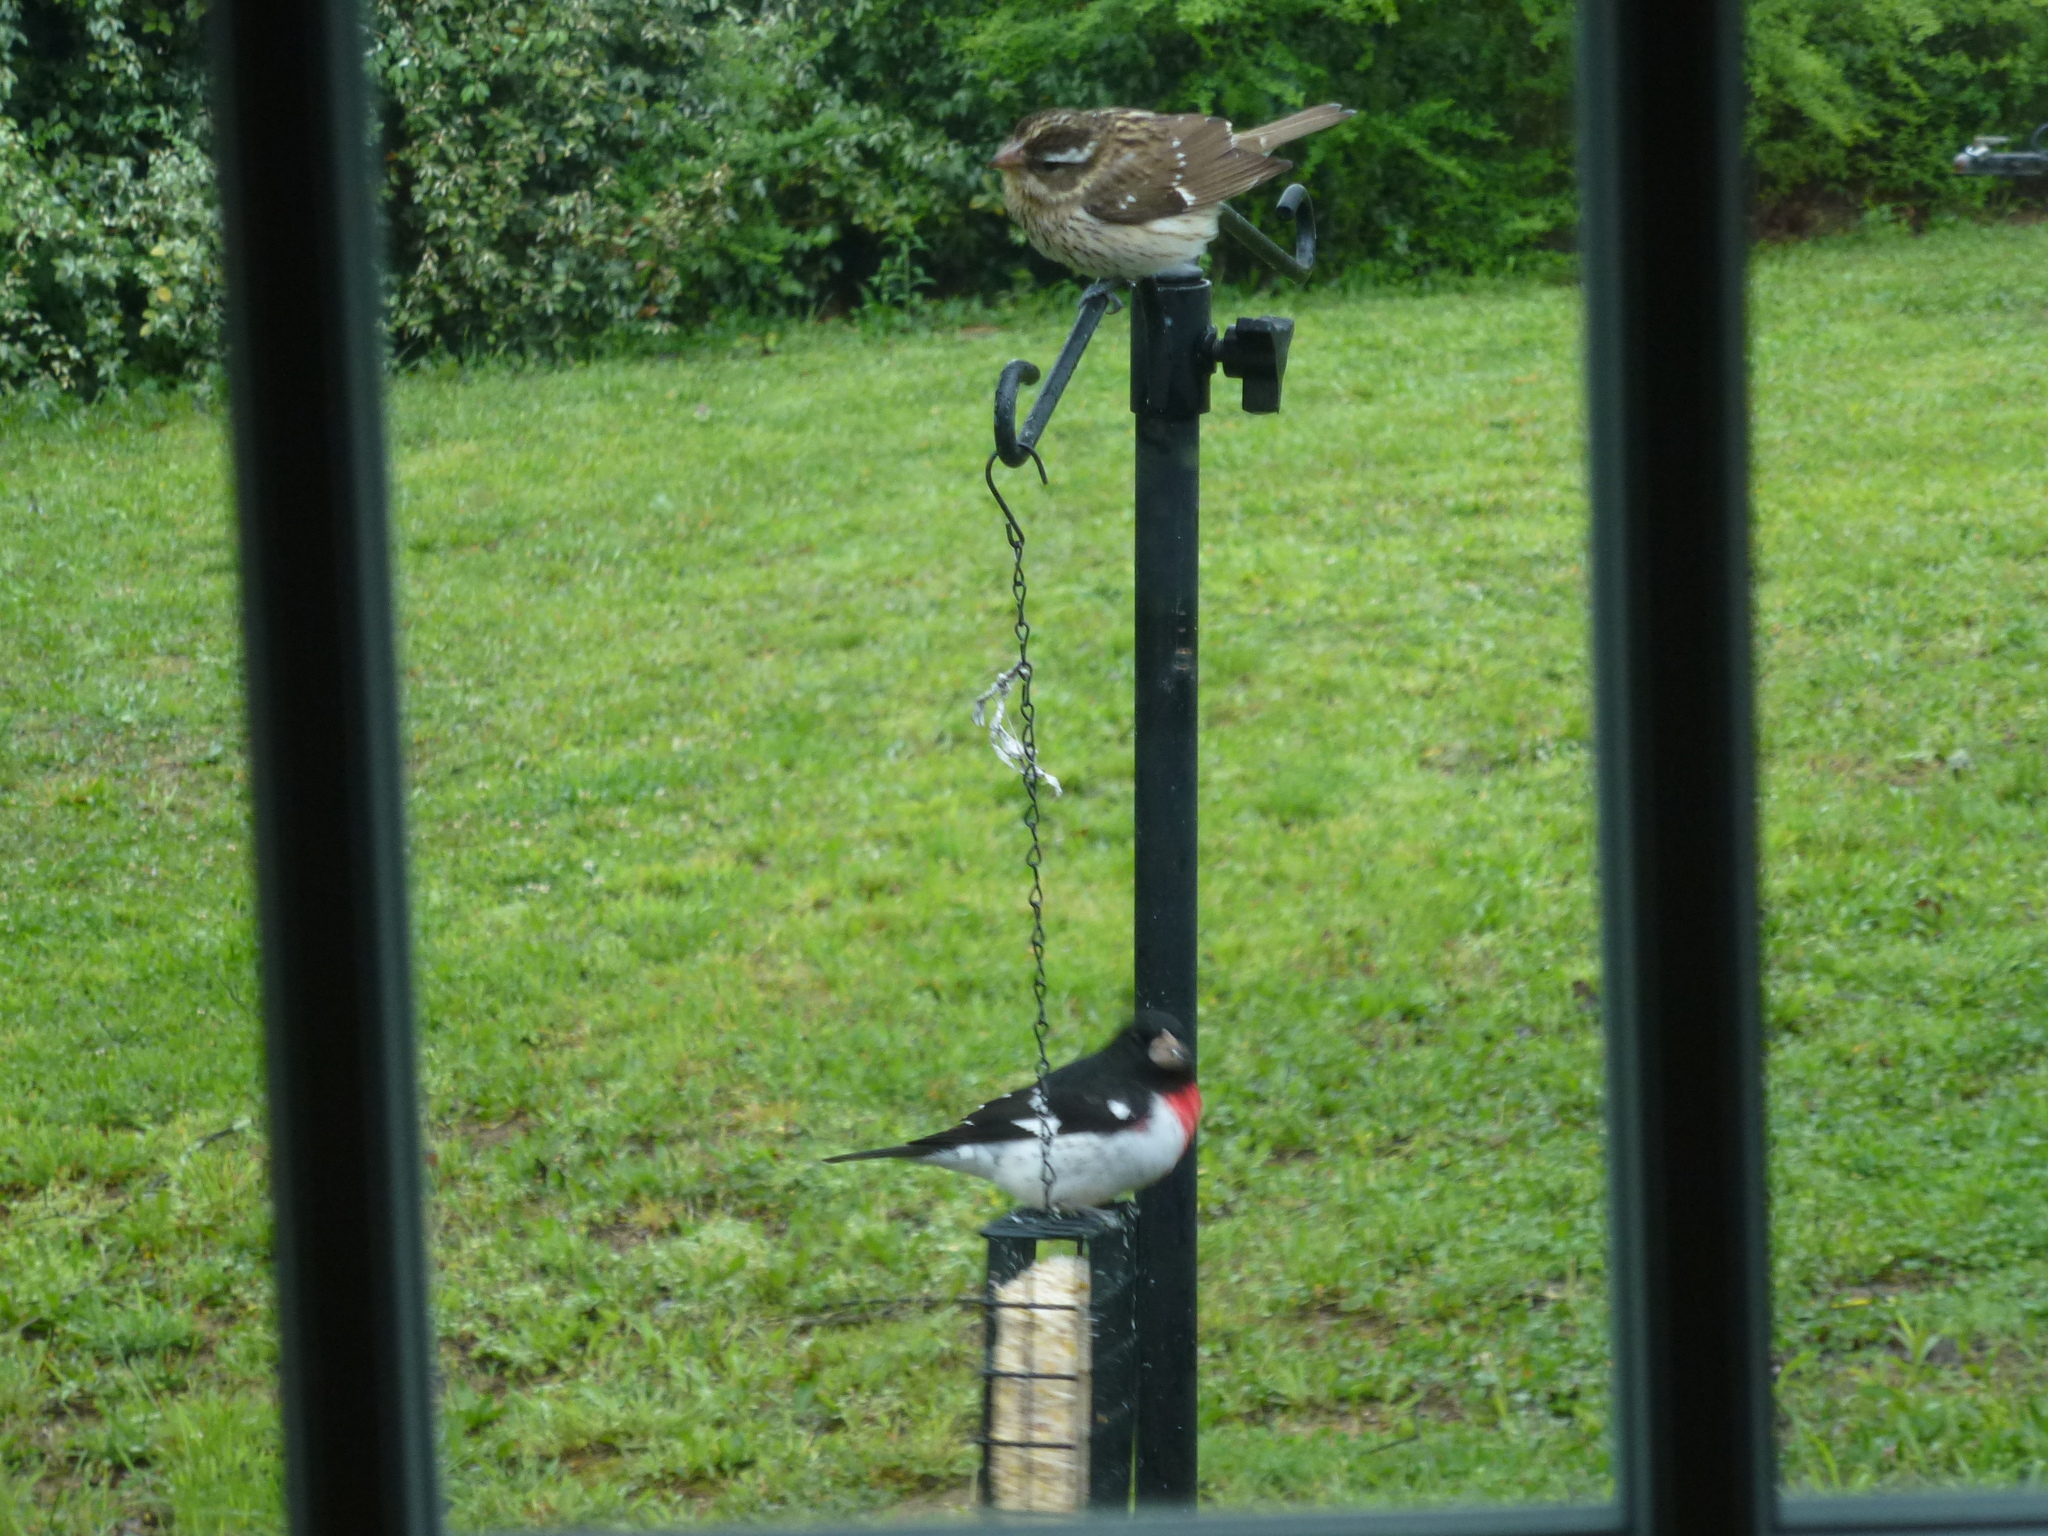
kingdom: Animalia
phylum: Chordata
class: Aves
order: Passeriformes
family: Cardinalidae
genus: Pheucticus
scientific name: Pheucticus ludovicianus
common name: Rose-breasted grosbeak
